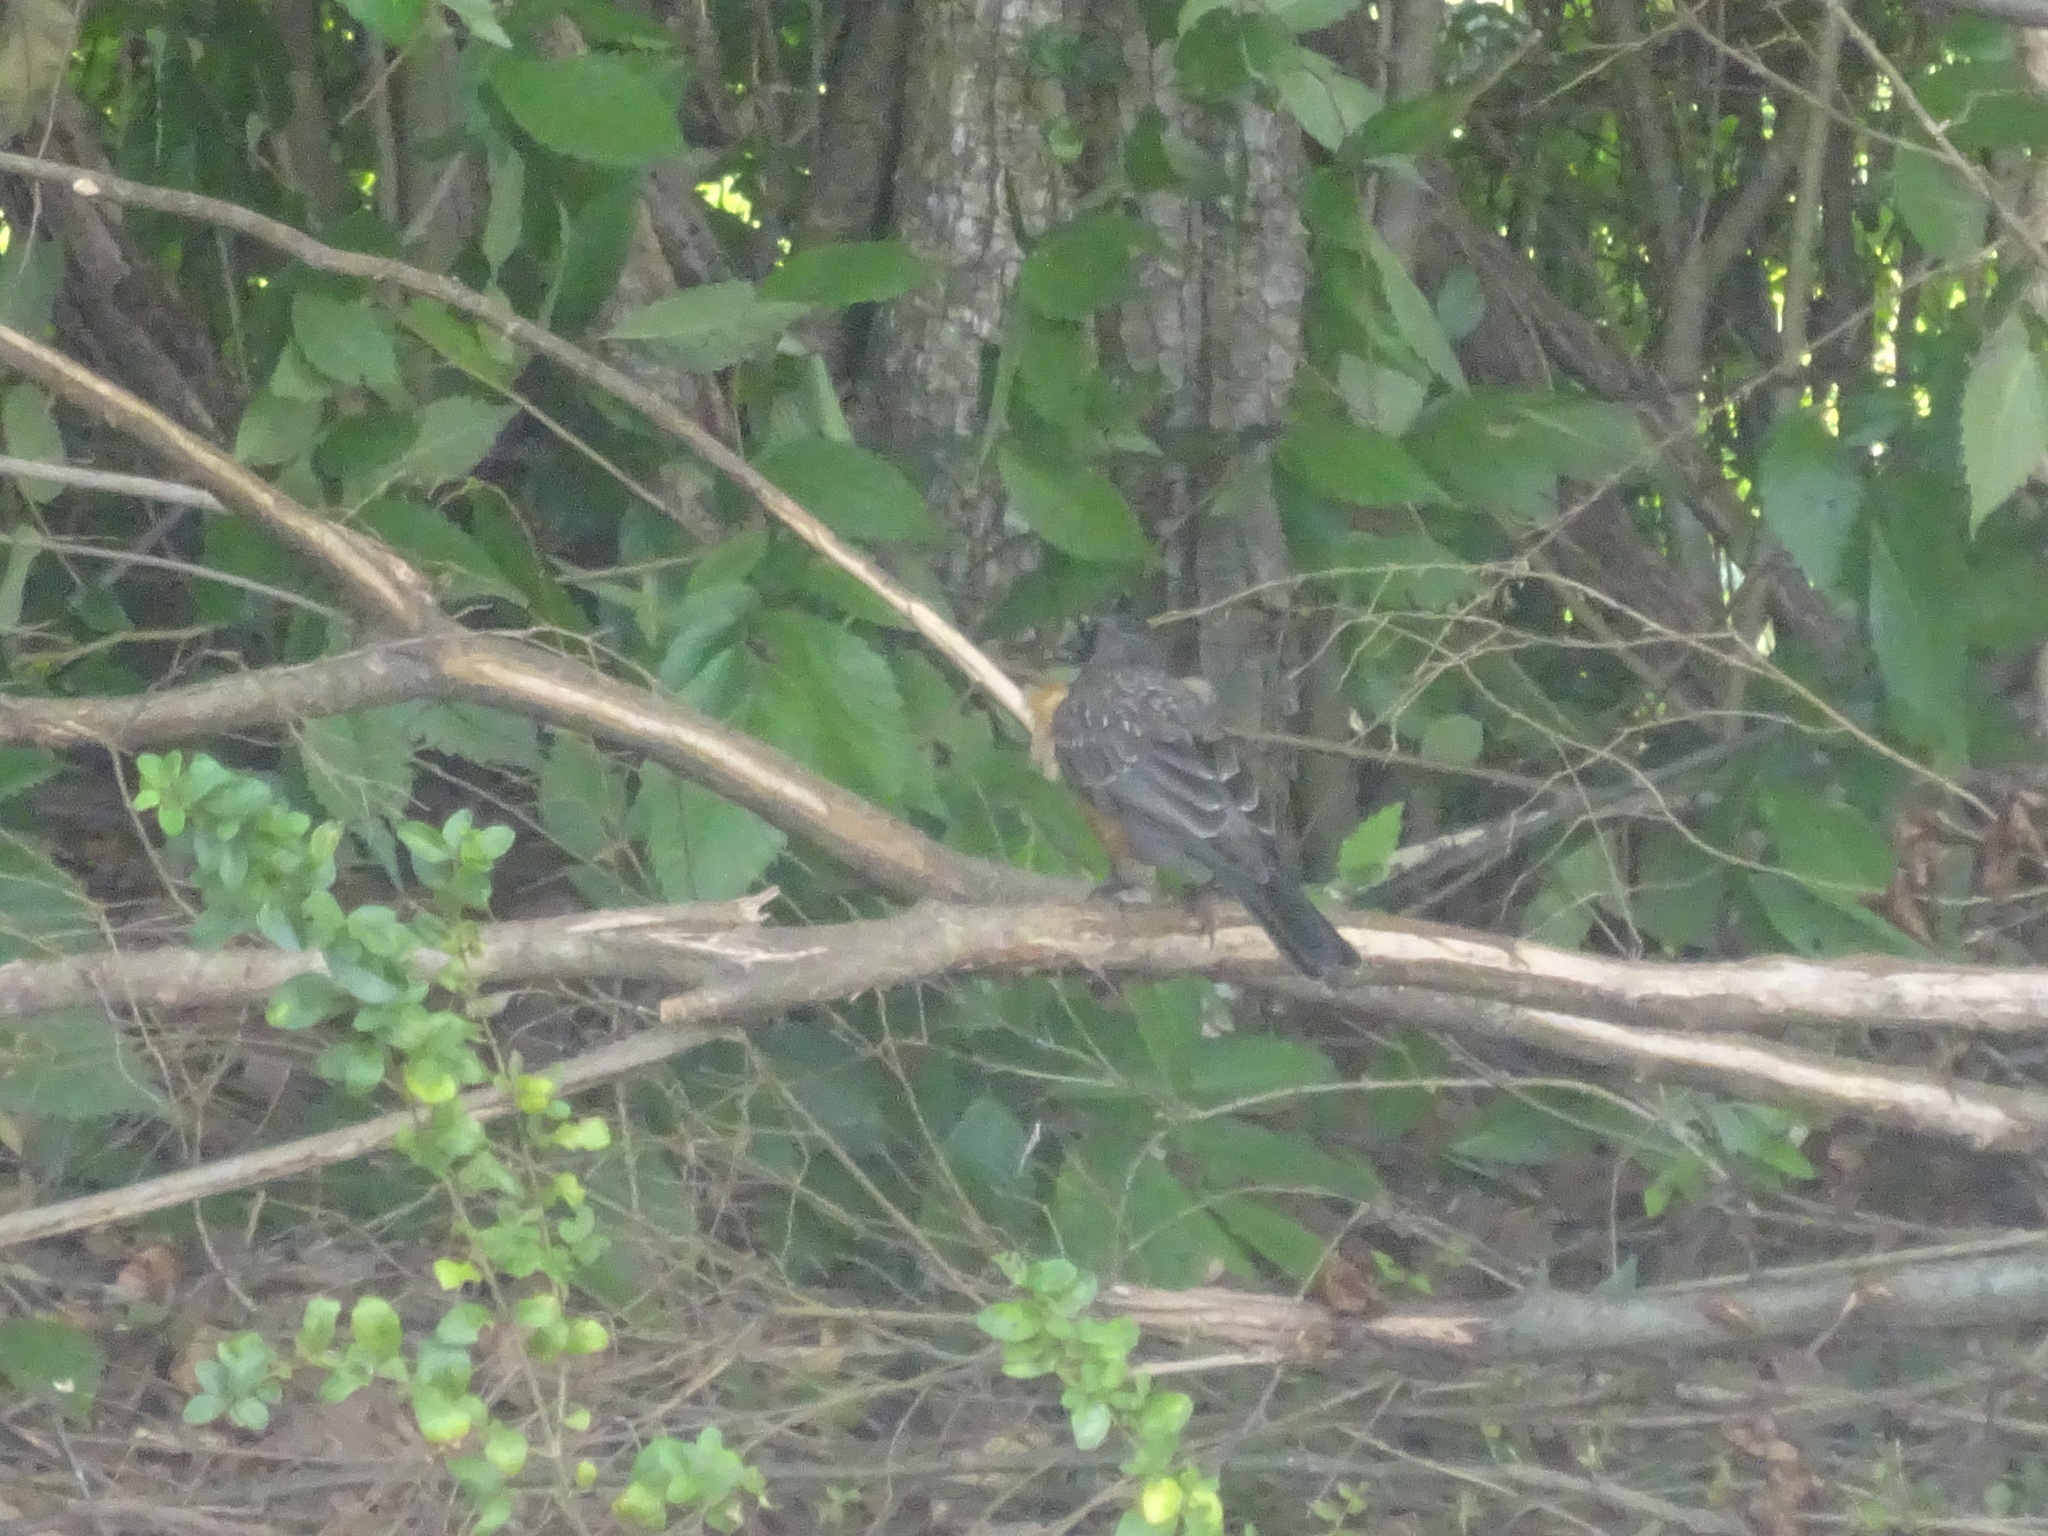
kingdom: Animalia
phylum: Chordata
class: Aves
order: Passeriformes
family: Turdidae
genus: Turdus
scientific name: Turdus migratorius
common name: American robin
